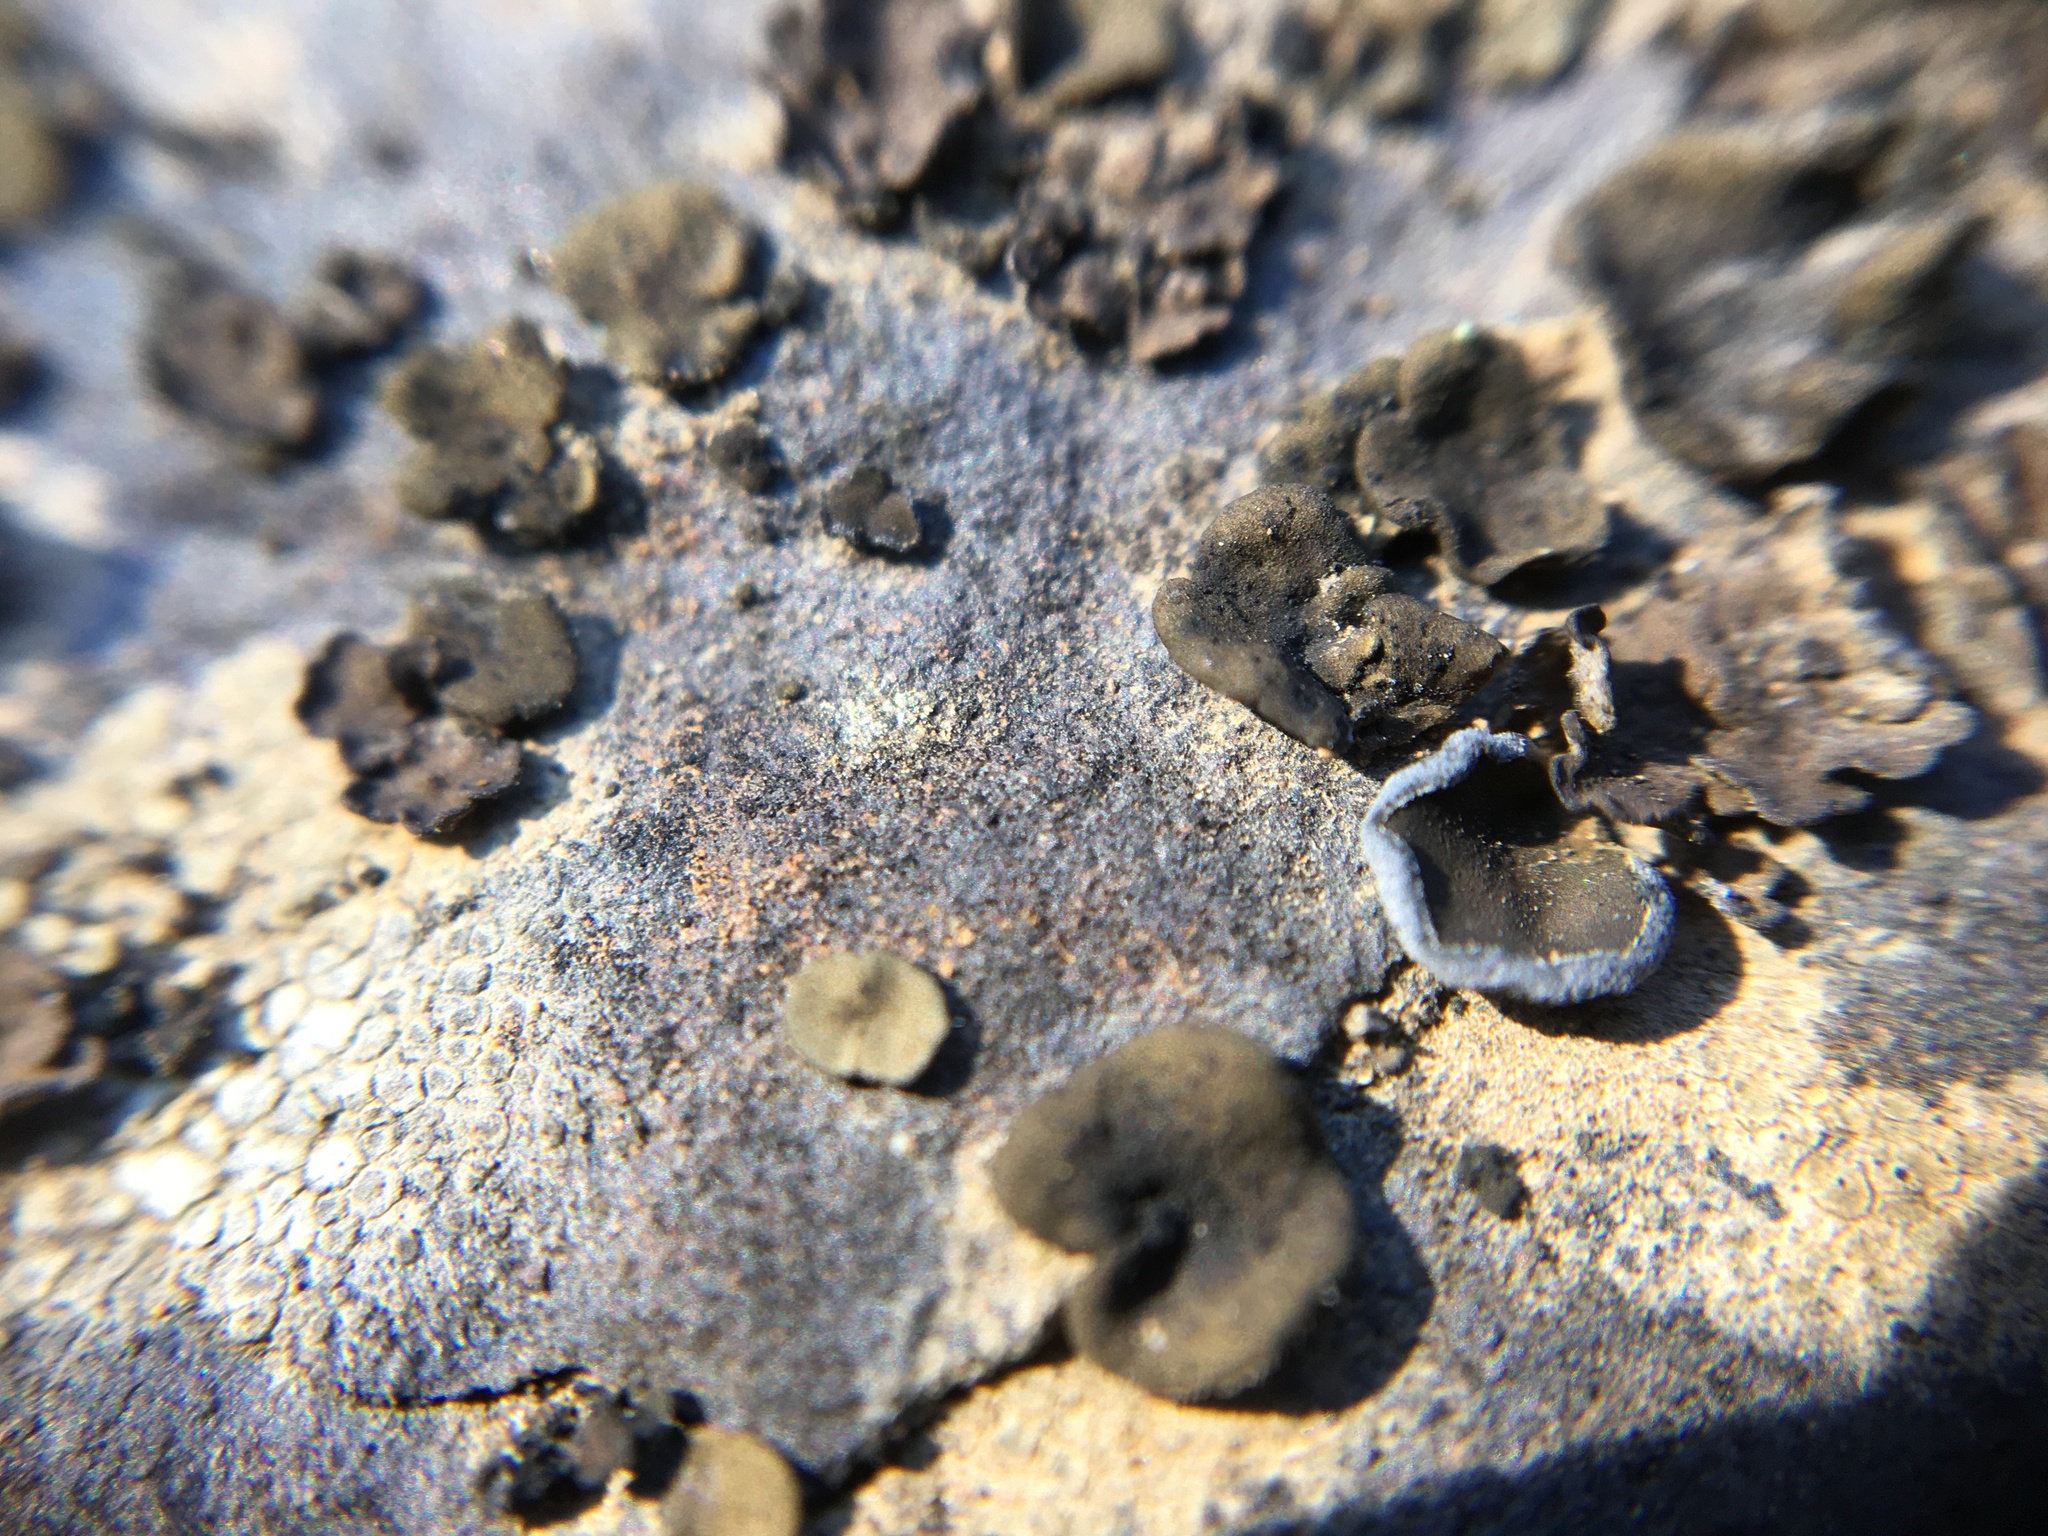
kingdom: Fungi
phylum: Ascomycota
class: Lichinomycetes
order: Lichinales
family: Peltulaceae
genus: Peltula
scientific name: Peltula euploca
